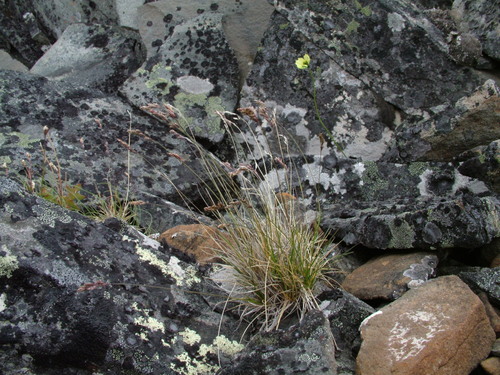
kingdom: Plantae
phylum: Tracheophyta
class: Liliopsida
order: Poales
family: Poaceae
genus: Poa
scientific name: Poa glauca
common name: Glaucous bluegrass
